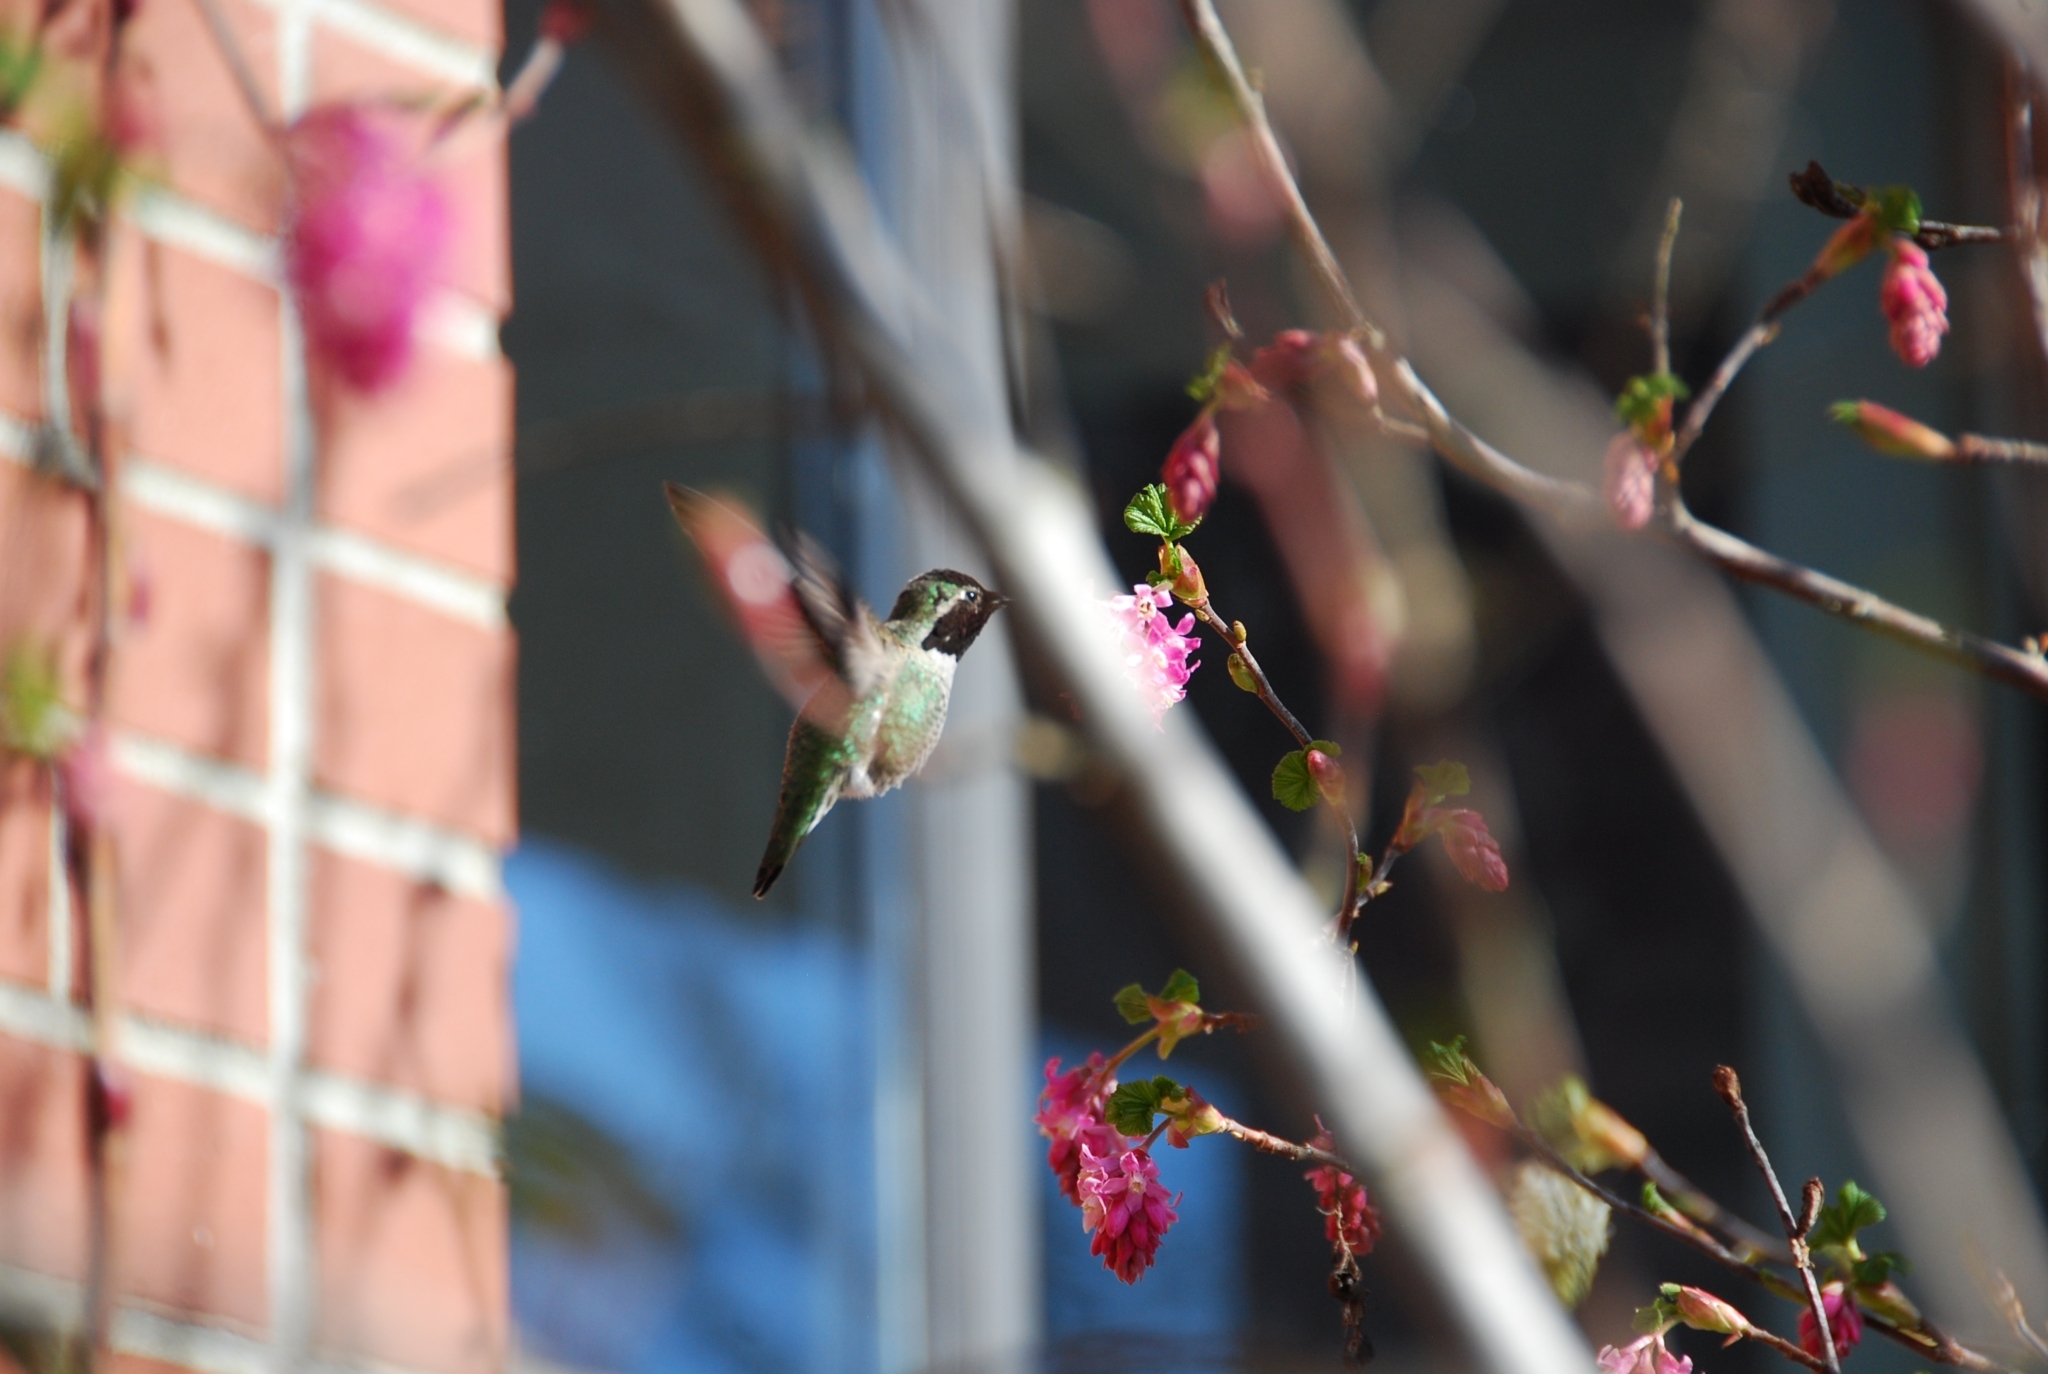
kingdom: Animalia
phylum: Chordata
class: Aves
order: Apodiformes
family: Trochilidae
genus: Calypte
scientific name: Calypte anna
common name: Anna's hummingbird
